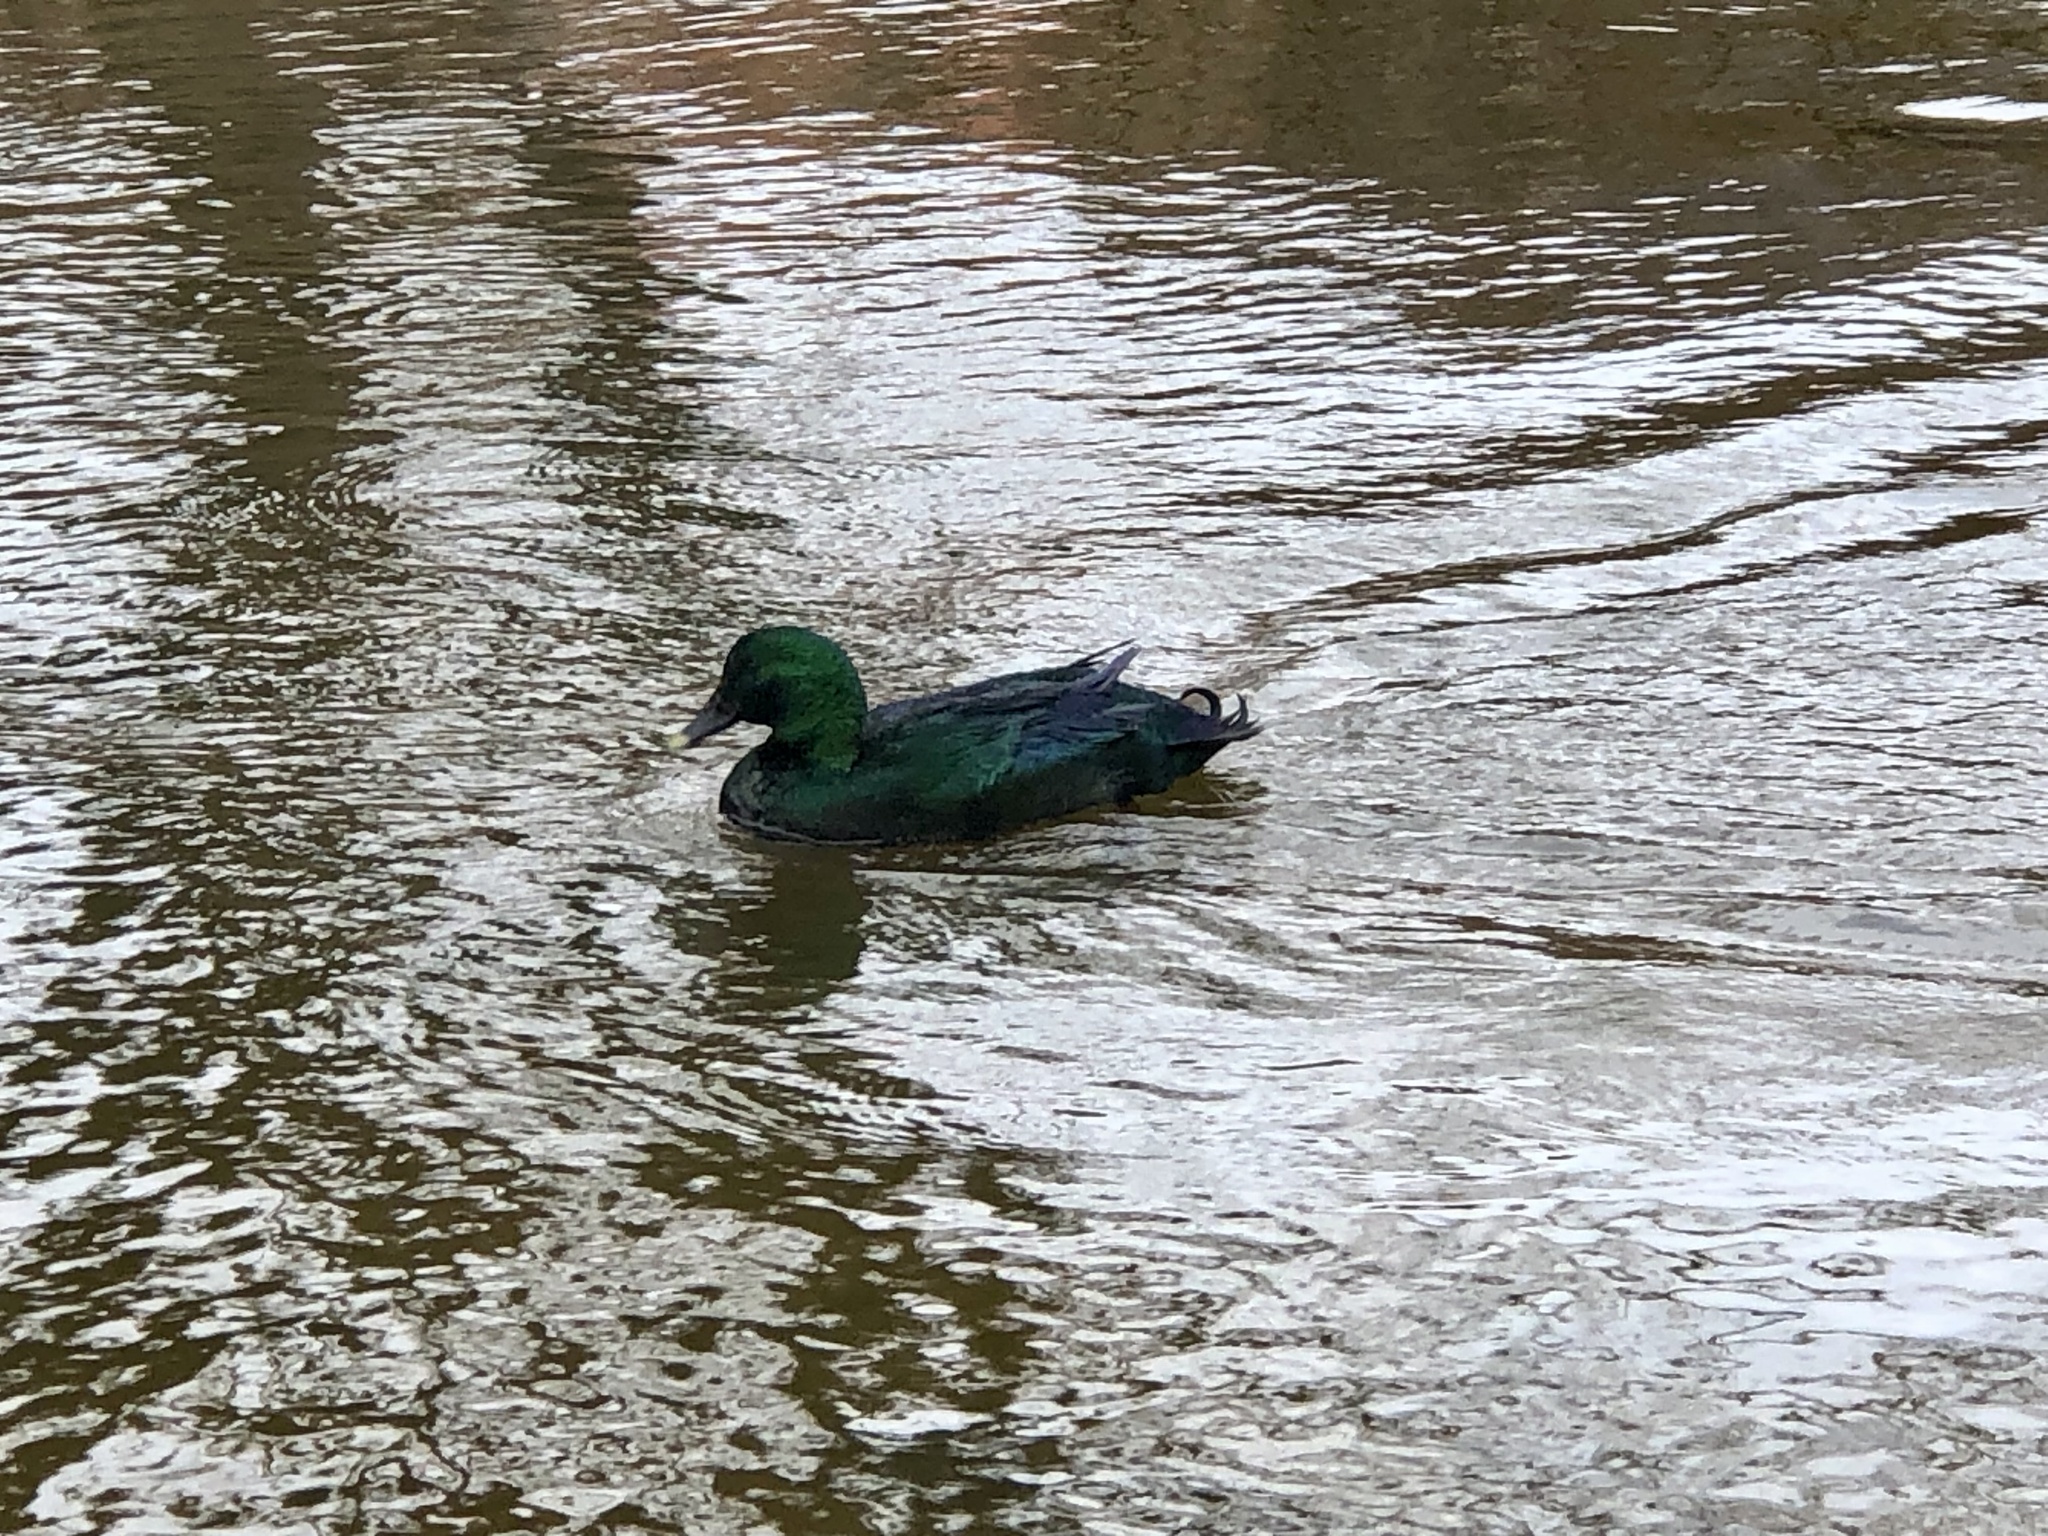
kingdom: Animalia
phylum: Chordata
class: Aves
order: Anseriformes
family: Anatidae
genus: Anas
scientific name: Anas platyrhynchos
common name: Mallard
